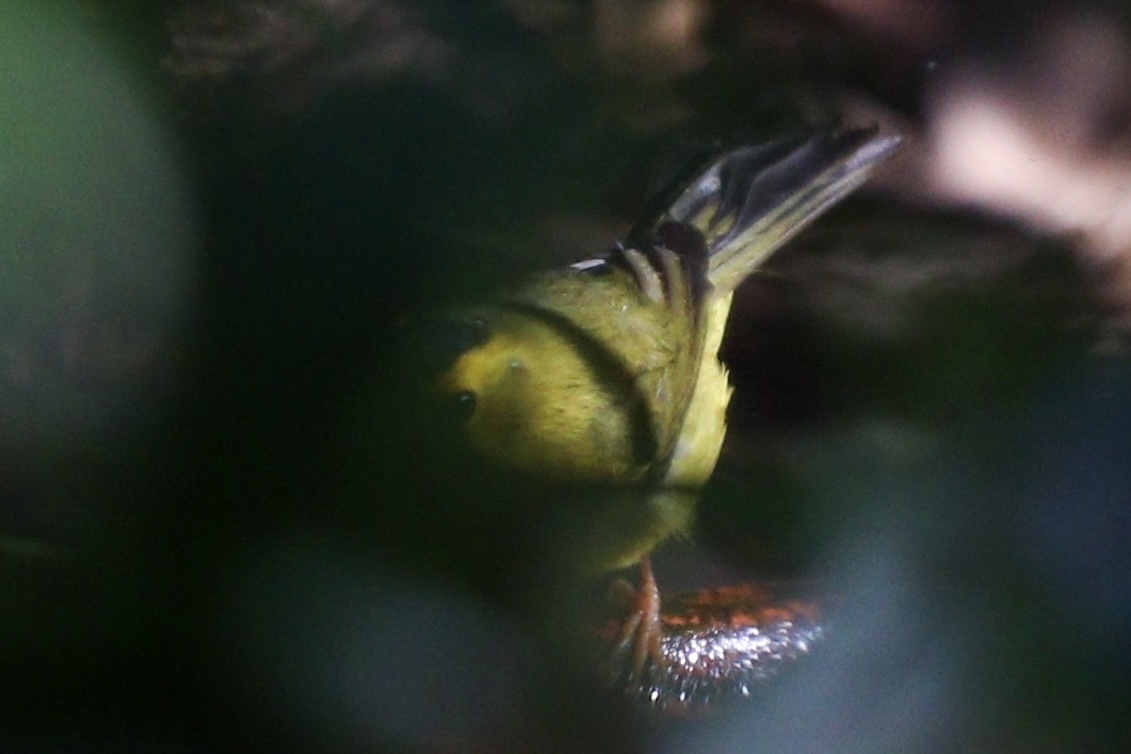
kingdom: Animalia
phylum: Chordata
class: Aves
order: Passeriformes
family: Parulidae
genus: Cardellina
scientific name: Cardellina pusilla
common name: Wilson's warbler
